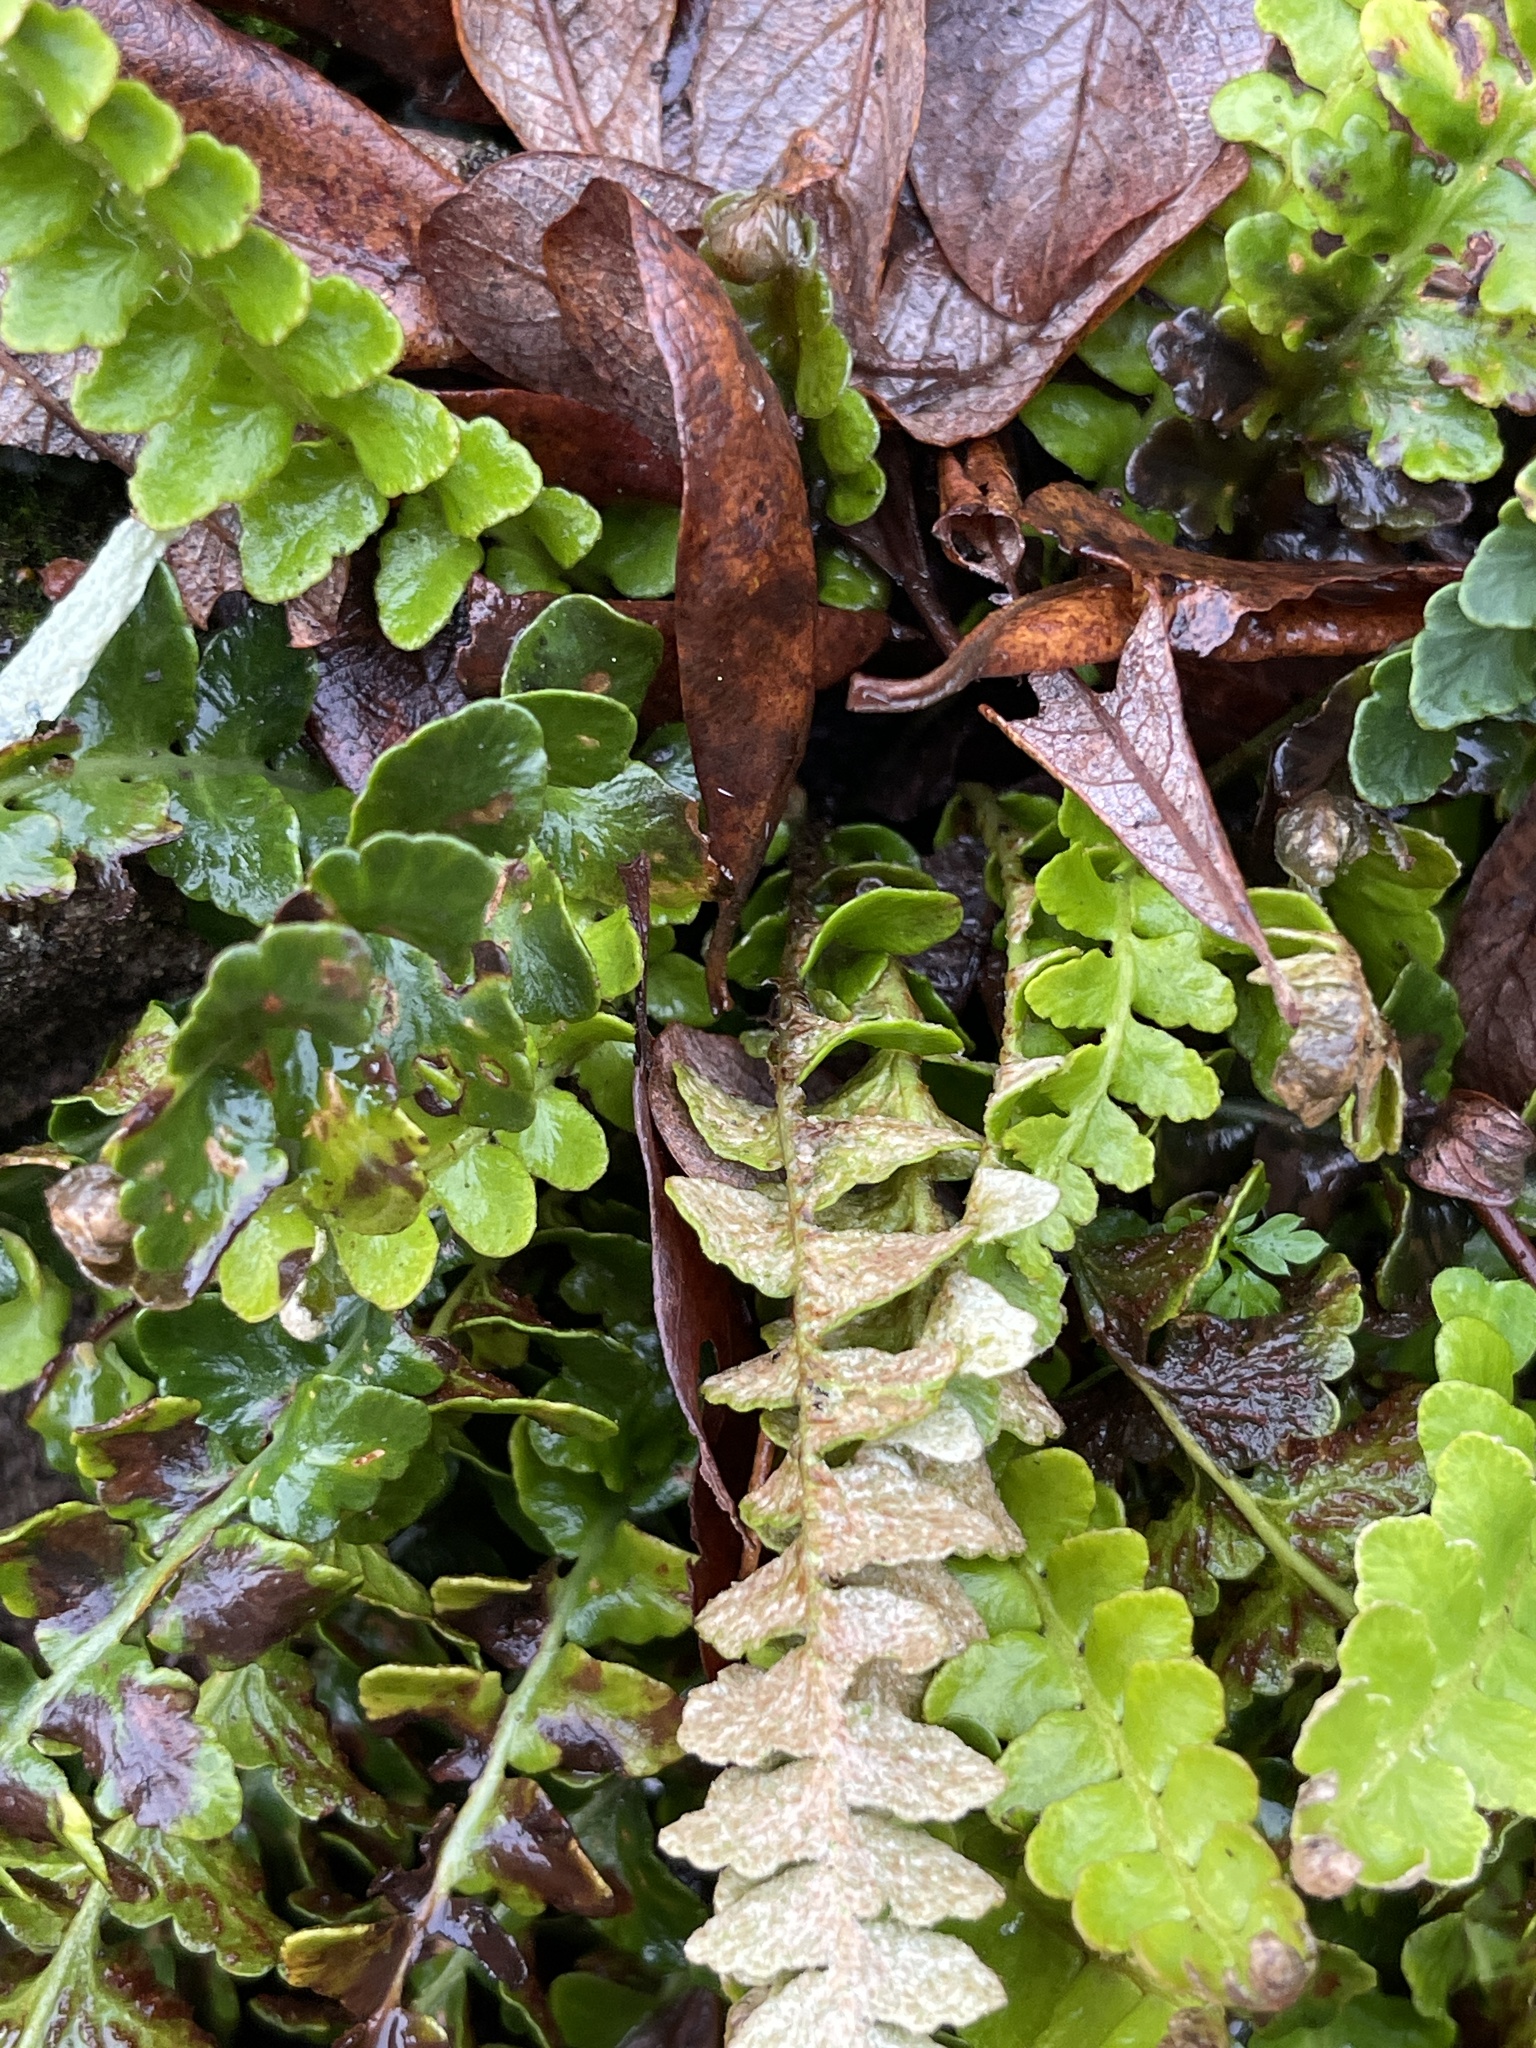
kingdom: Plantae
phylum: Tracheophyta
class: Polypodiopsida
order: Polypodiales
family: Aspleniaceae
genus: Asplenium
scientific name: Asplenium ceterach
